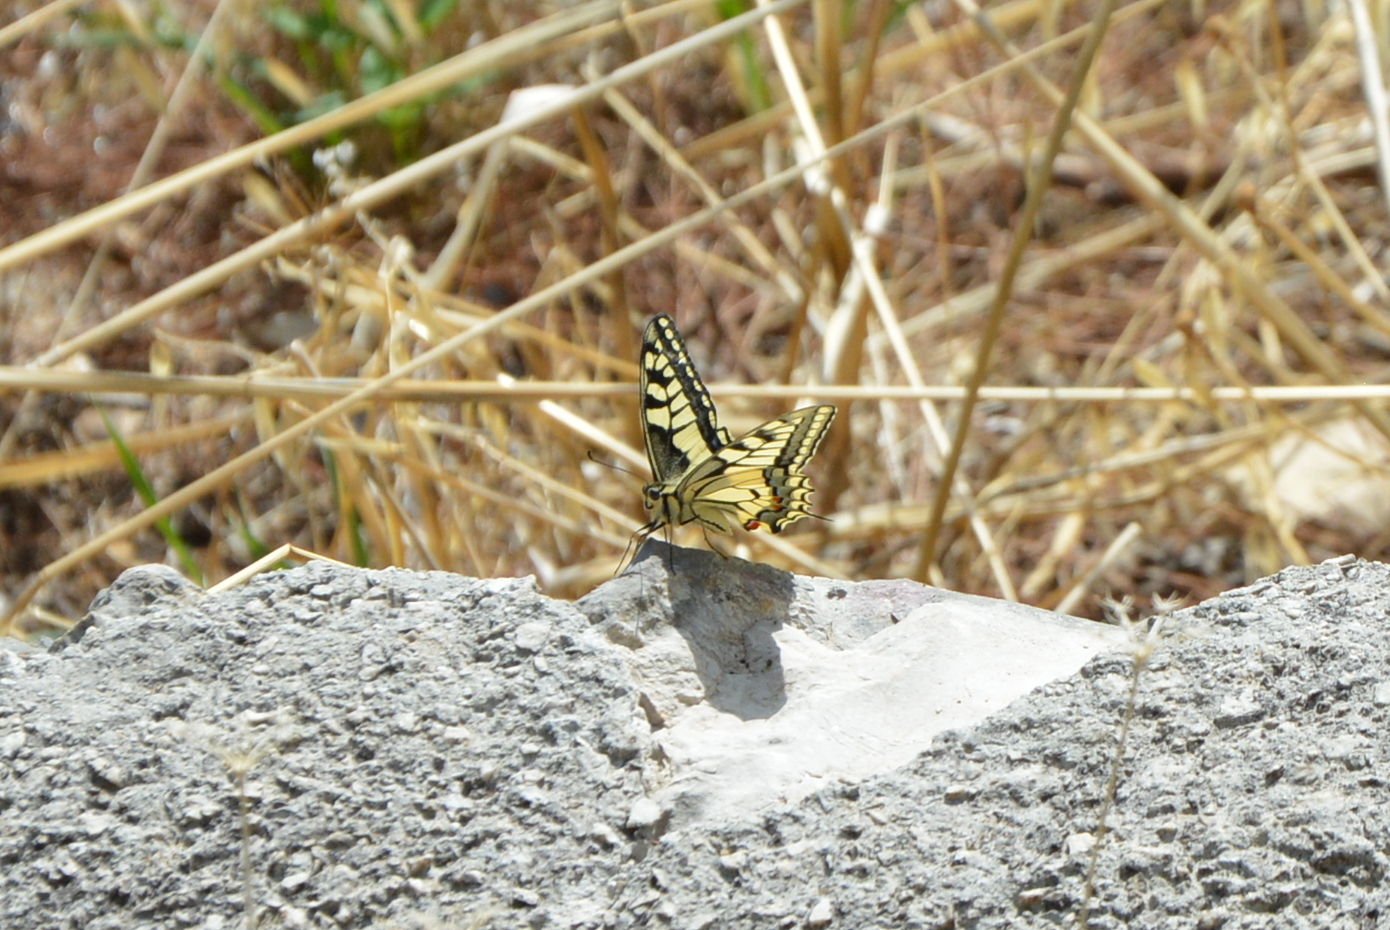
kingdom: Animalia
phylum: Arthropoda
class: Insecta
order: Lepidoptera
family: Papilionidae
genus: Papilio
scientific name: Papilio machaon
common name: Swallowtail
